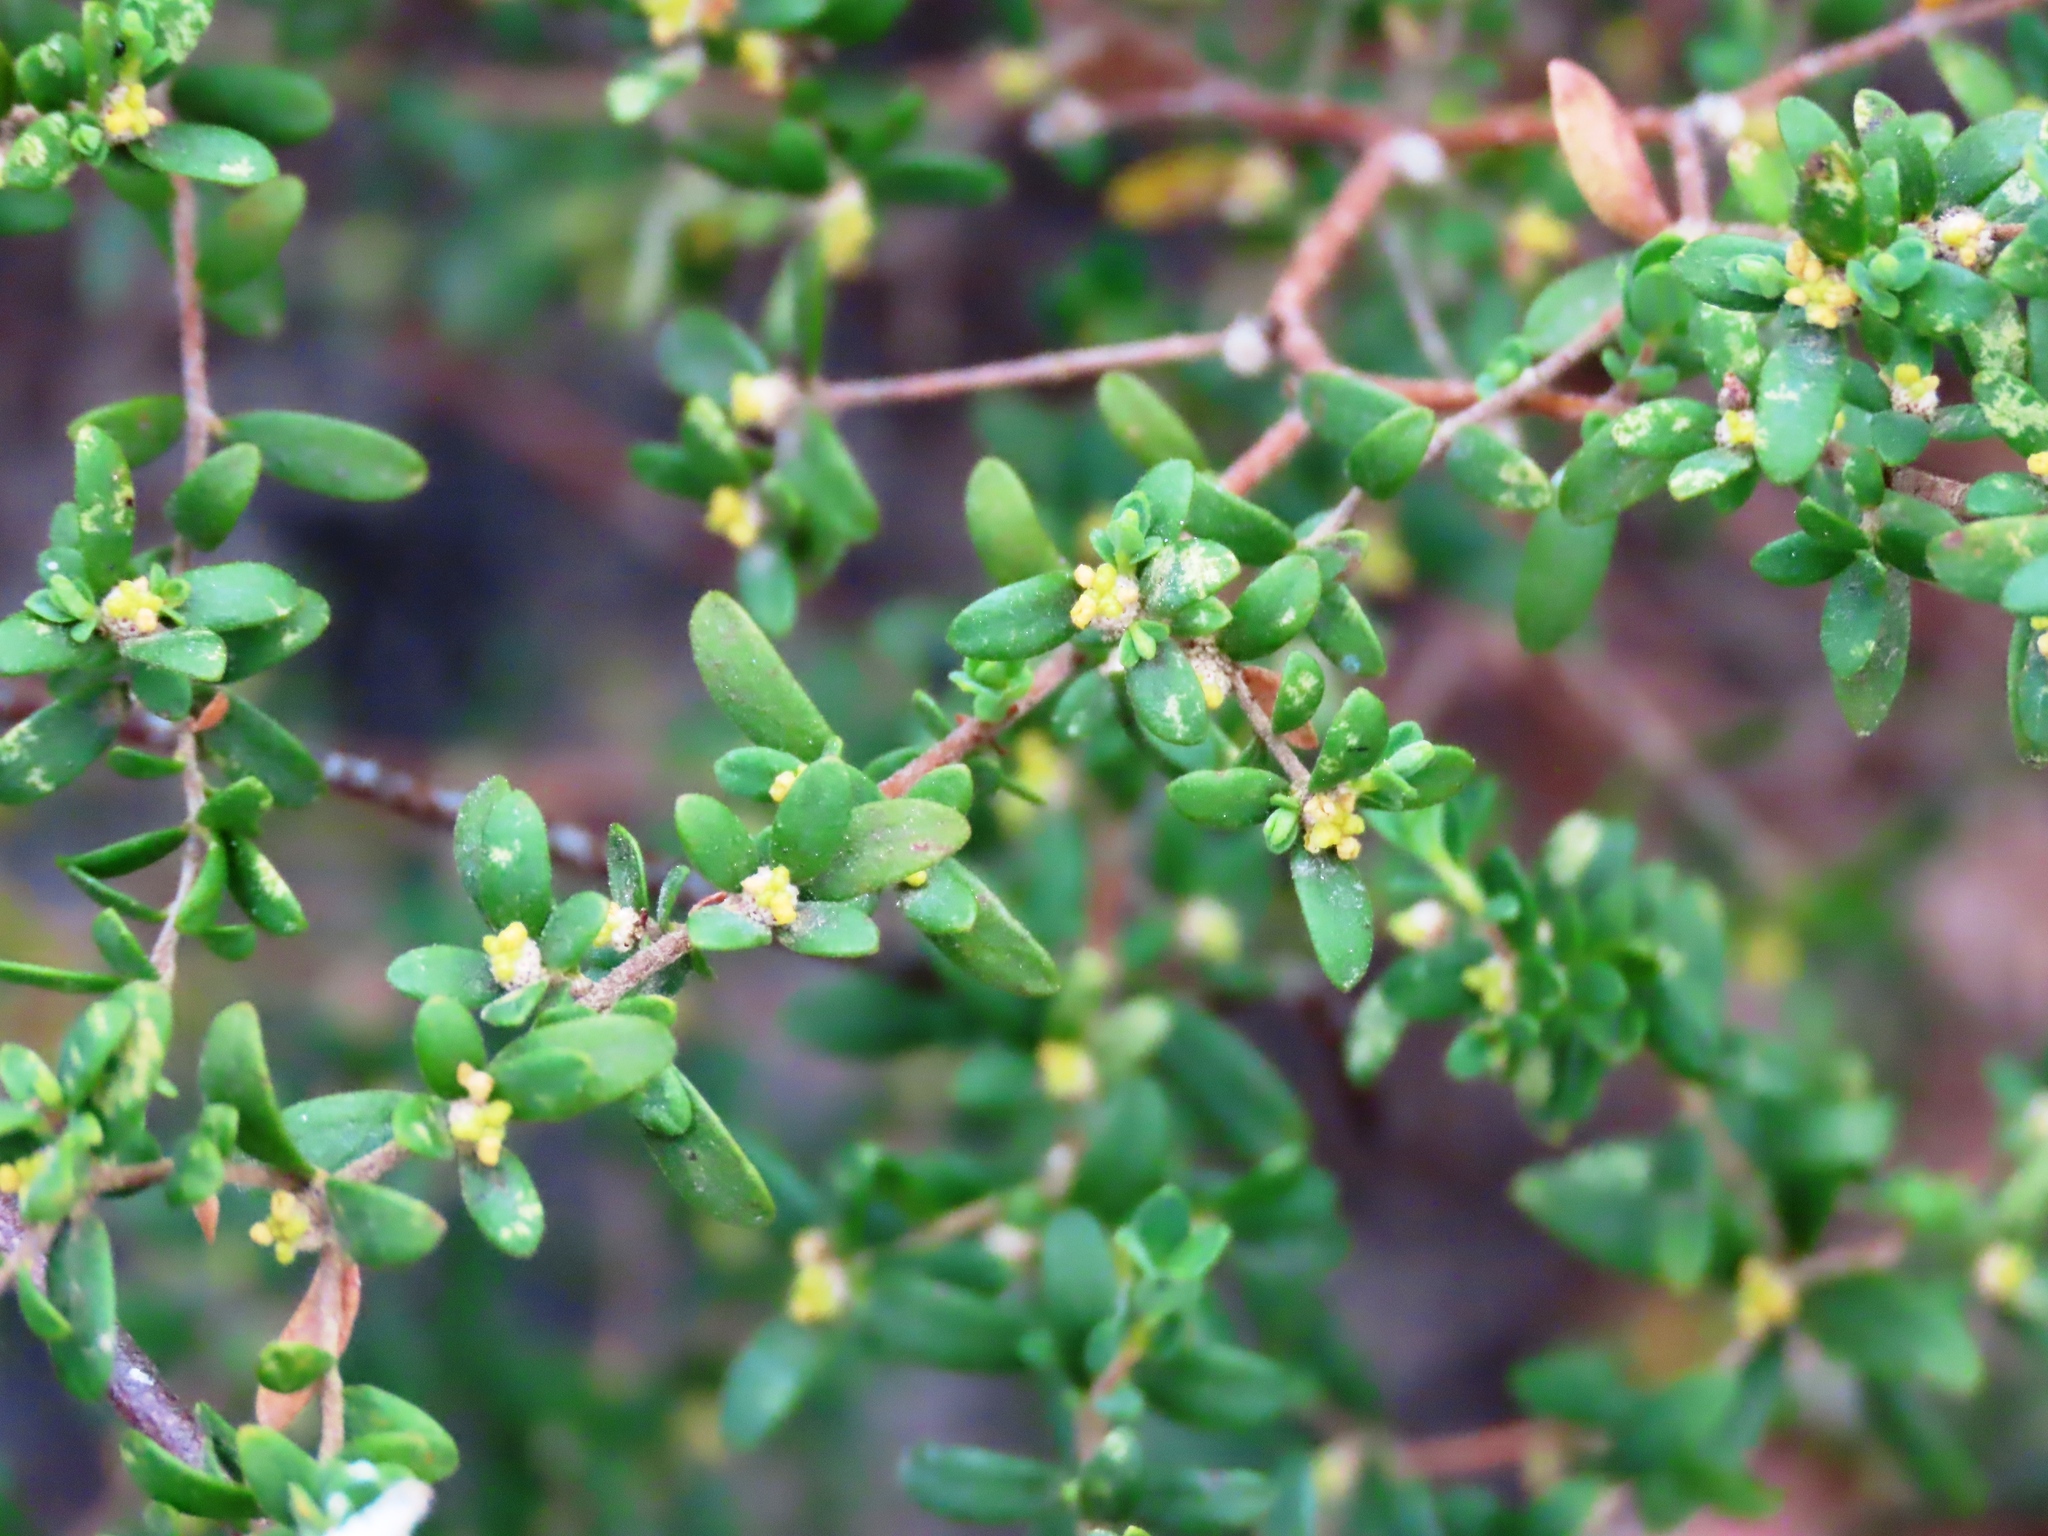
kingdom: Plantae
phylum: Tracheophyta
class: Magnoliopsida
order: Malvales
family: Thymelaeaceae
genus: Pimelea
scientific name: Pimelea hewardiana
